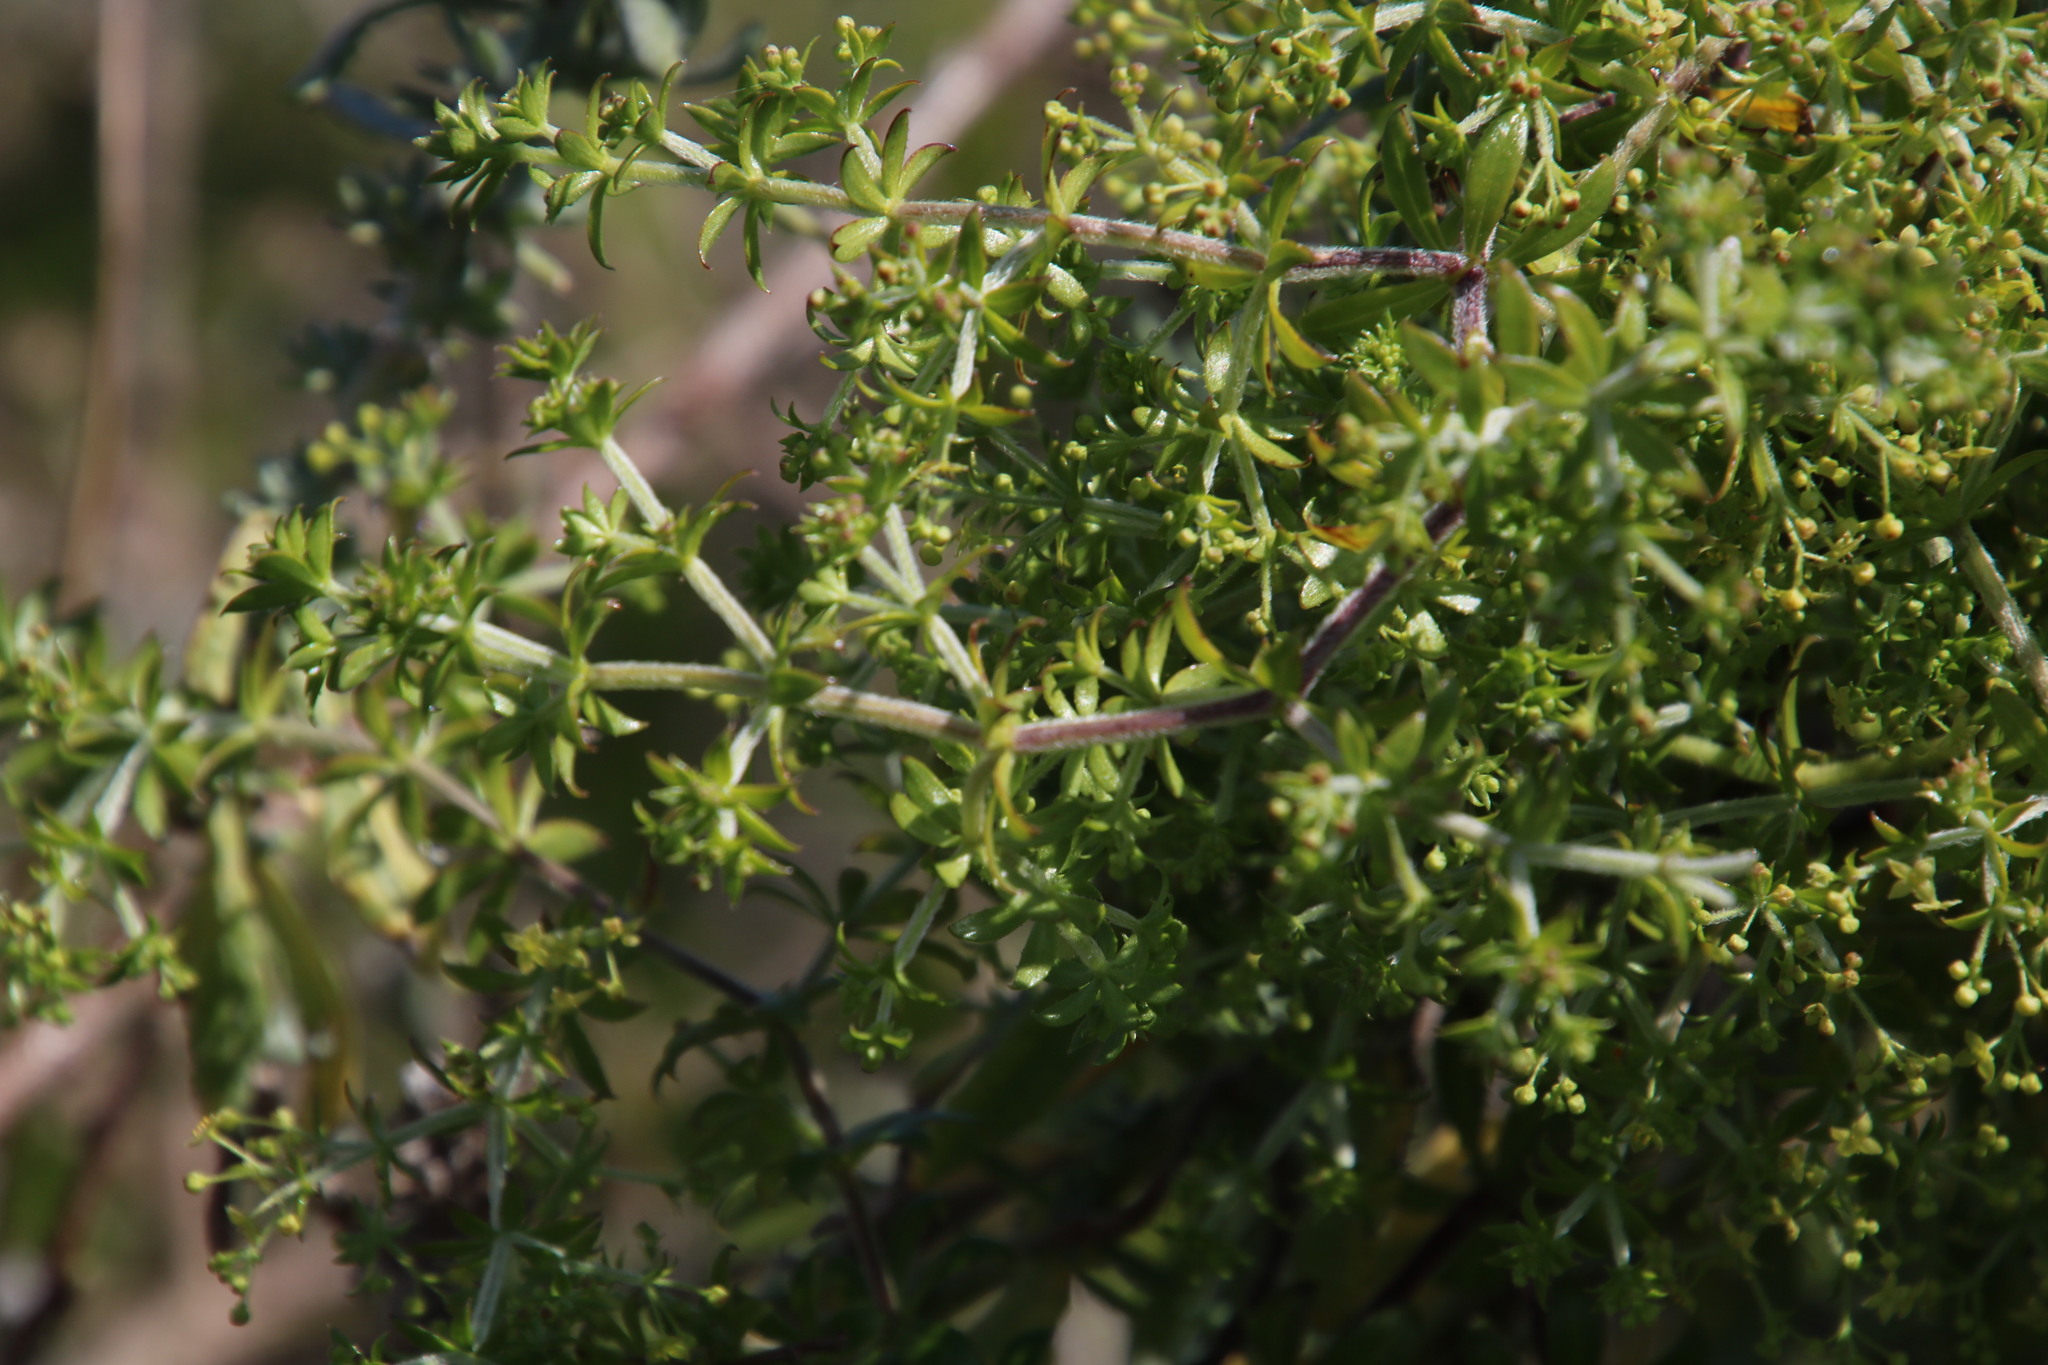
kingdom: Plantae
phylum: Tracheophyta
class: Magnoliopsida
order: Gentianales
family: Rubiaceae
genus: Galium
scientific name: Galium tomentosum
